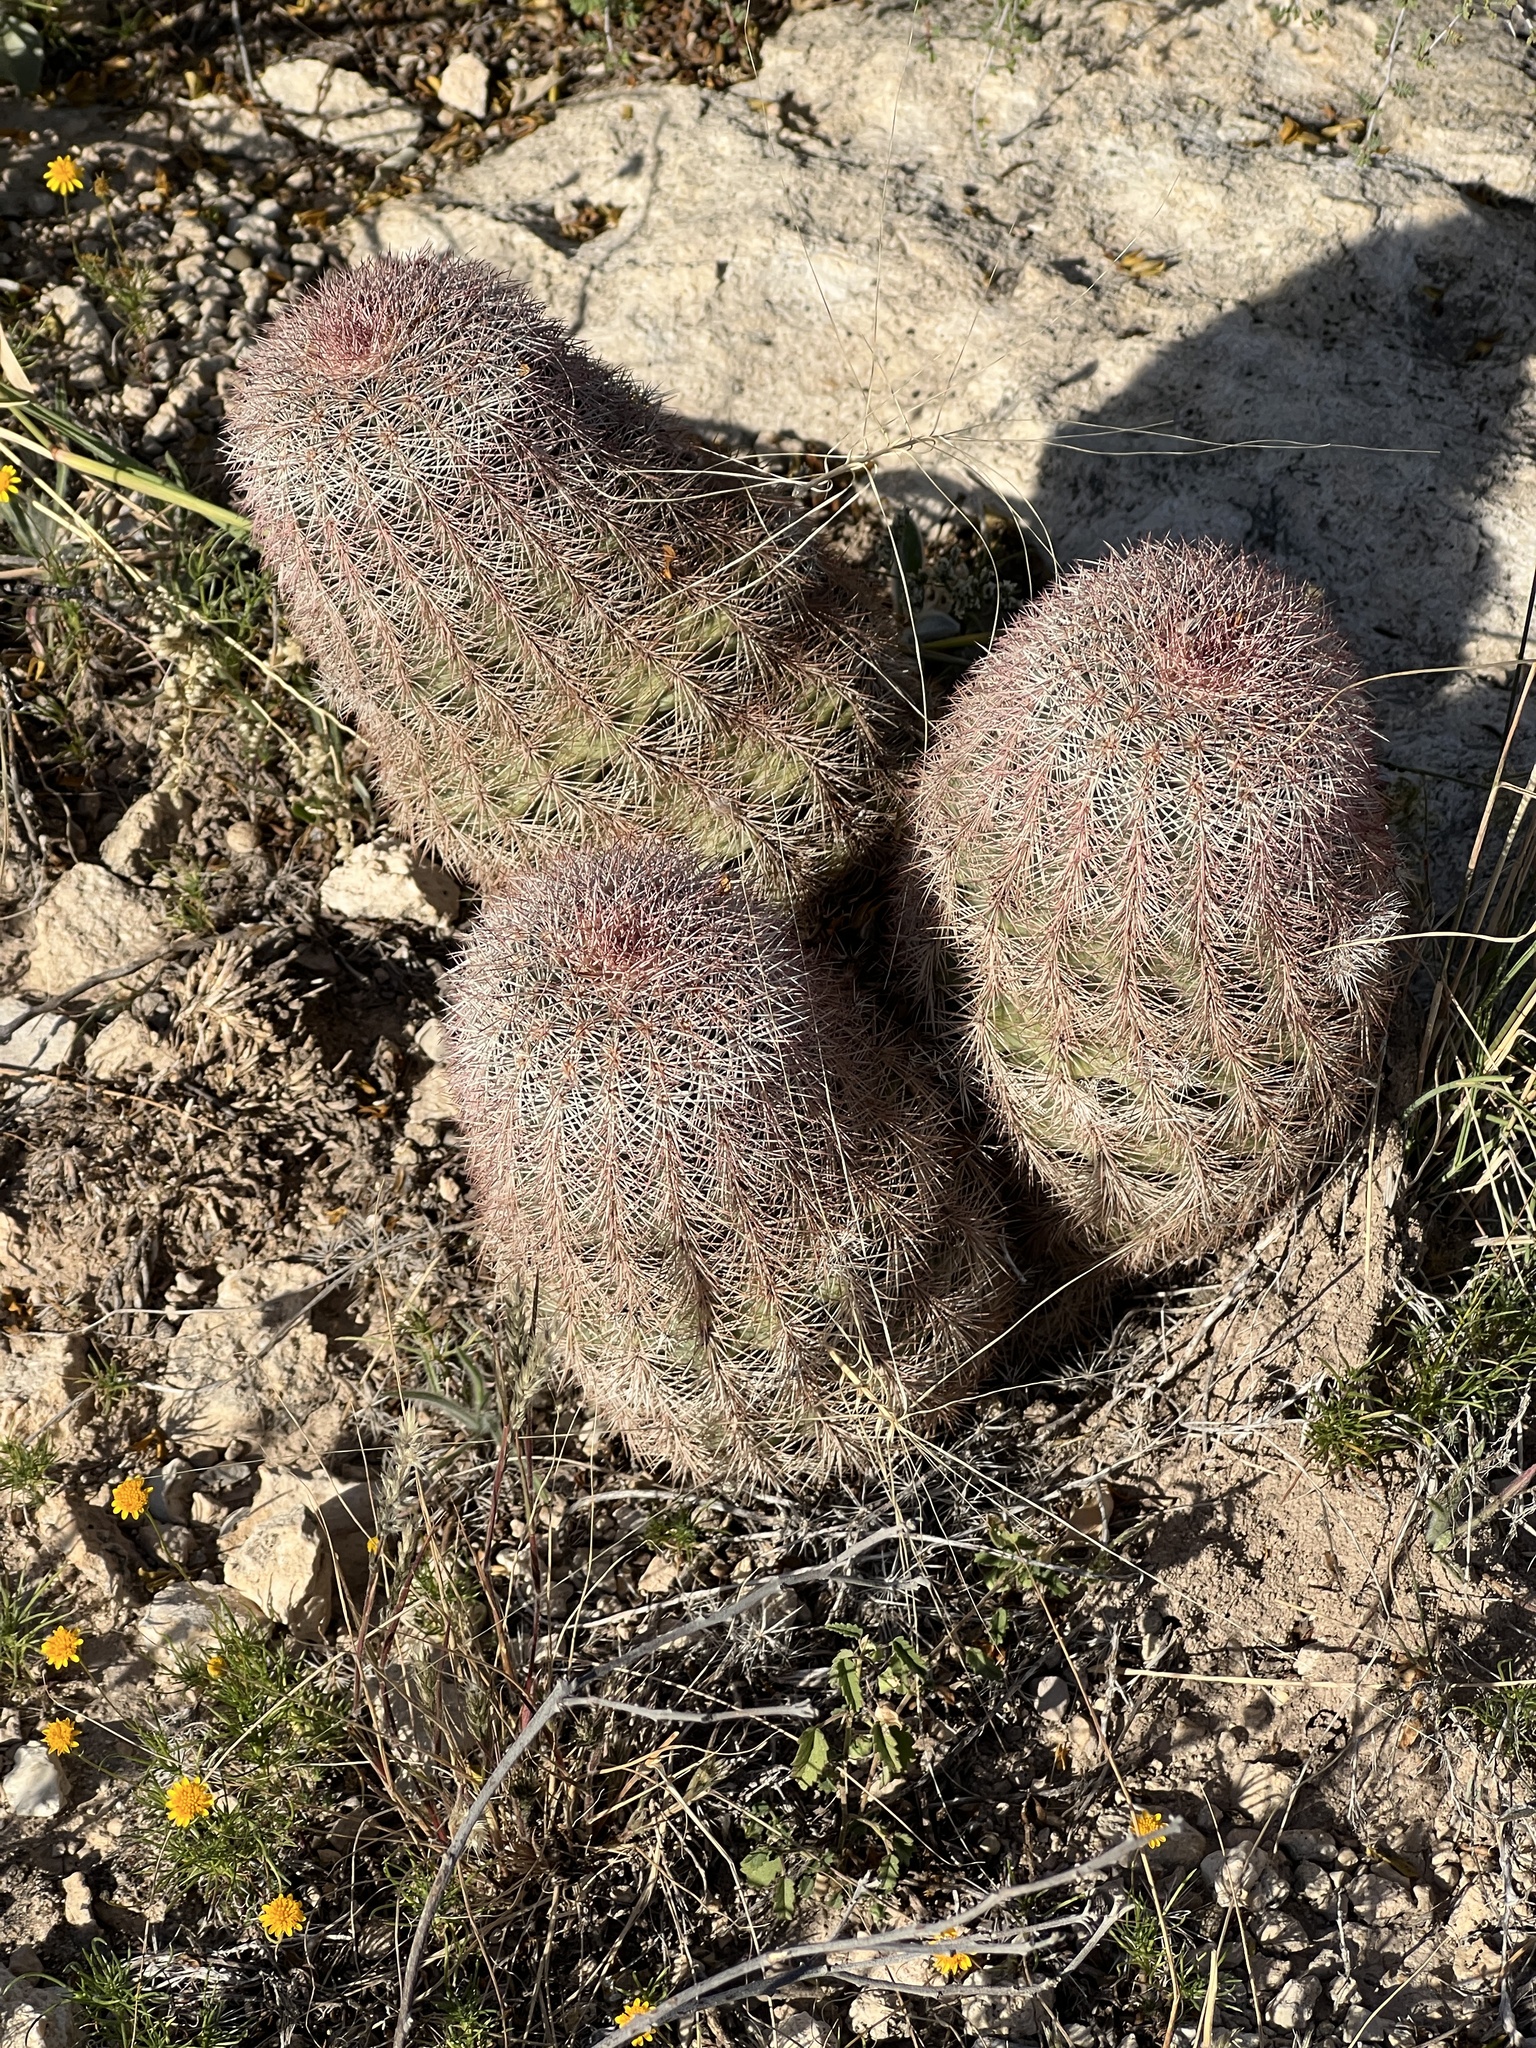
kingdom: Plantae
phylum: Tracheophyta
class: Magnoliopsida
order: Caryophyllales
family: Cactaceae
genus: Echinocereus
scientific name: Echinocereus dasyacanthus
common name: Spiny hedgehog cactus
